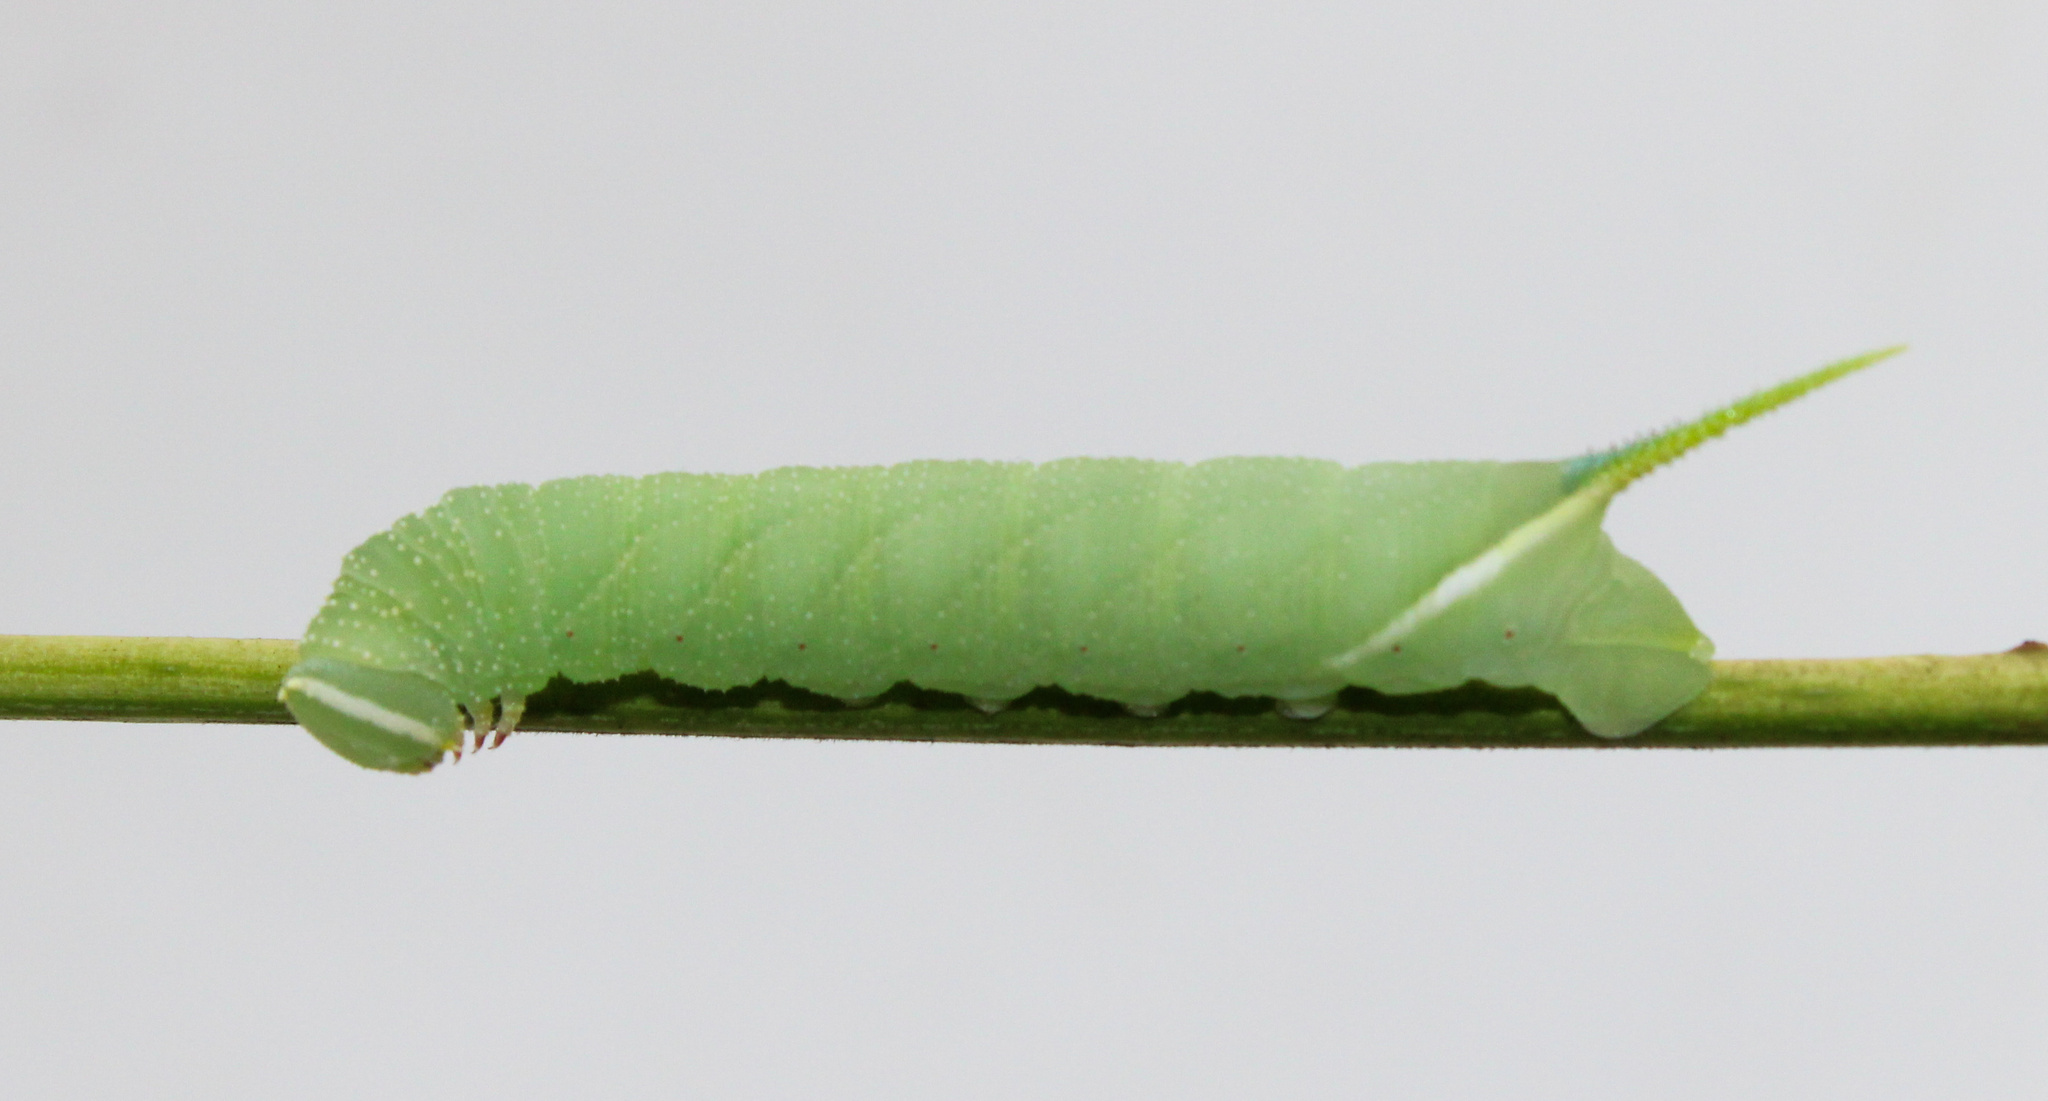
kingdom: Animalia
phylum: Arthropoda
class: Insecta
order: Lepidoptera
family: Sphingidae
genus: Manduca
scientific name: Manduca jasminearum
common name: Ash sphinx
